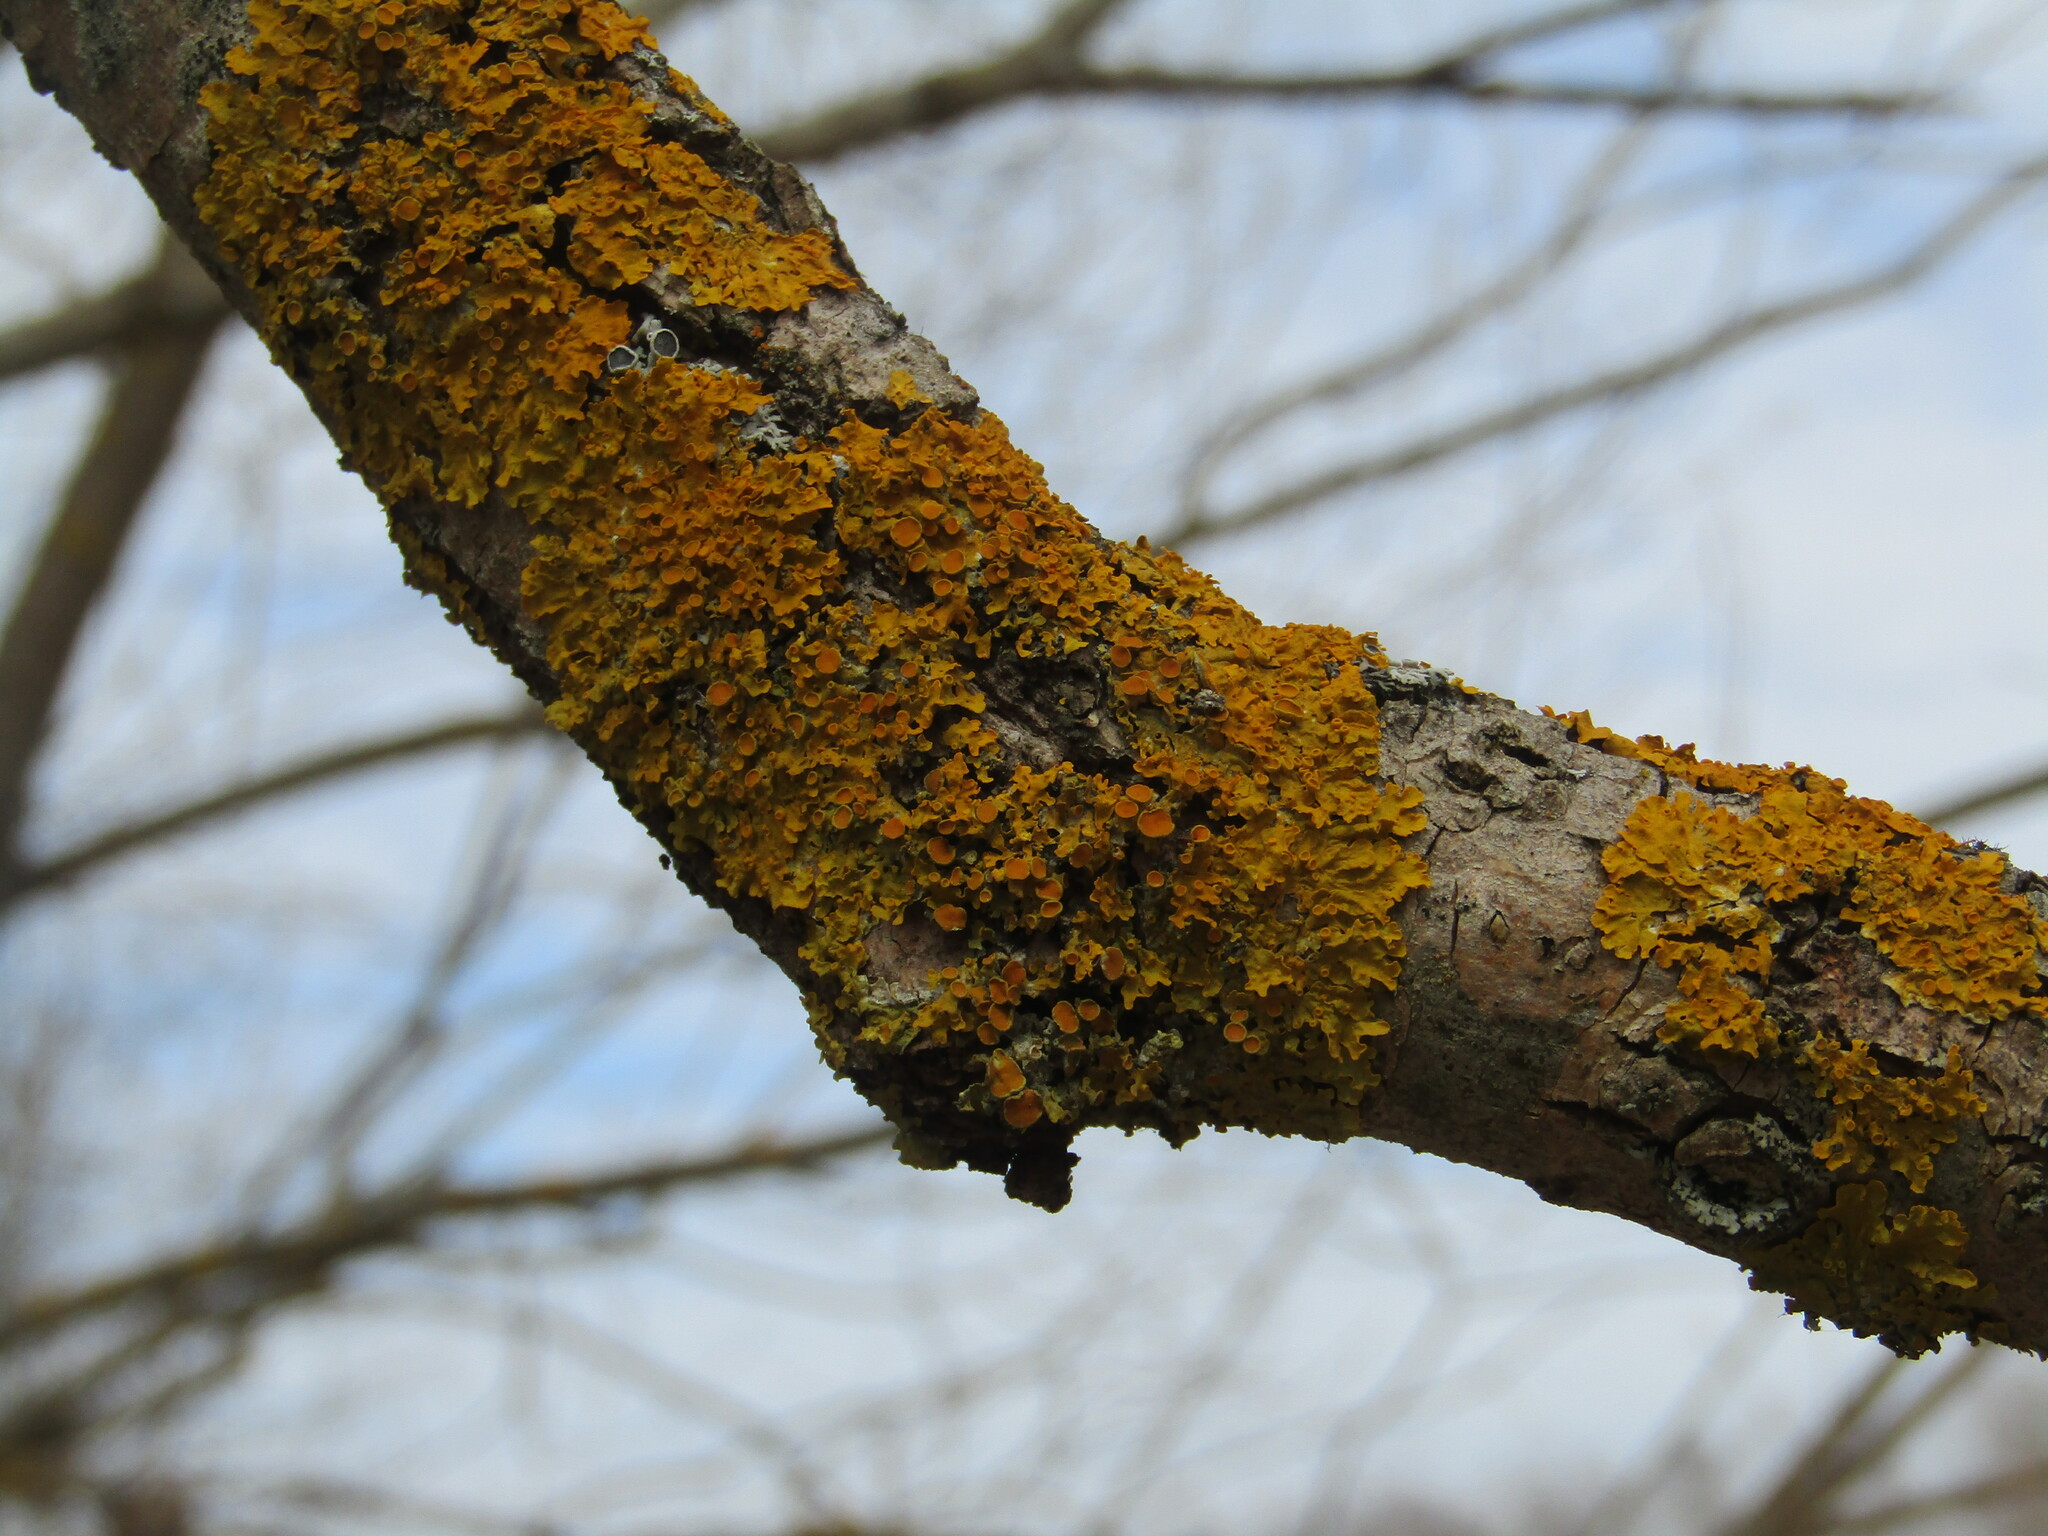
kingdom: Fungi
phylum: Ascomycota
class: Lecanoromycetes
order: Teloschistales
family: Teloschistaceae
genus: Xanthoria
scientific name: Xanthoria parietina
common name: Common orange lichen
